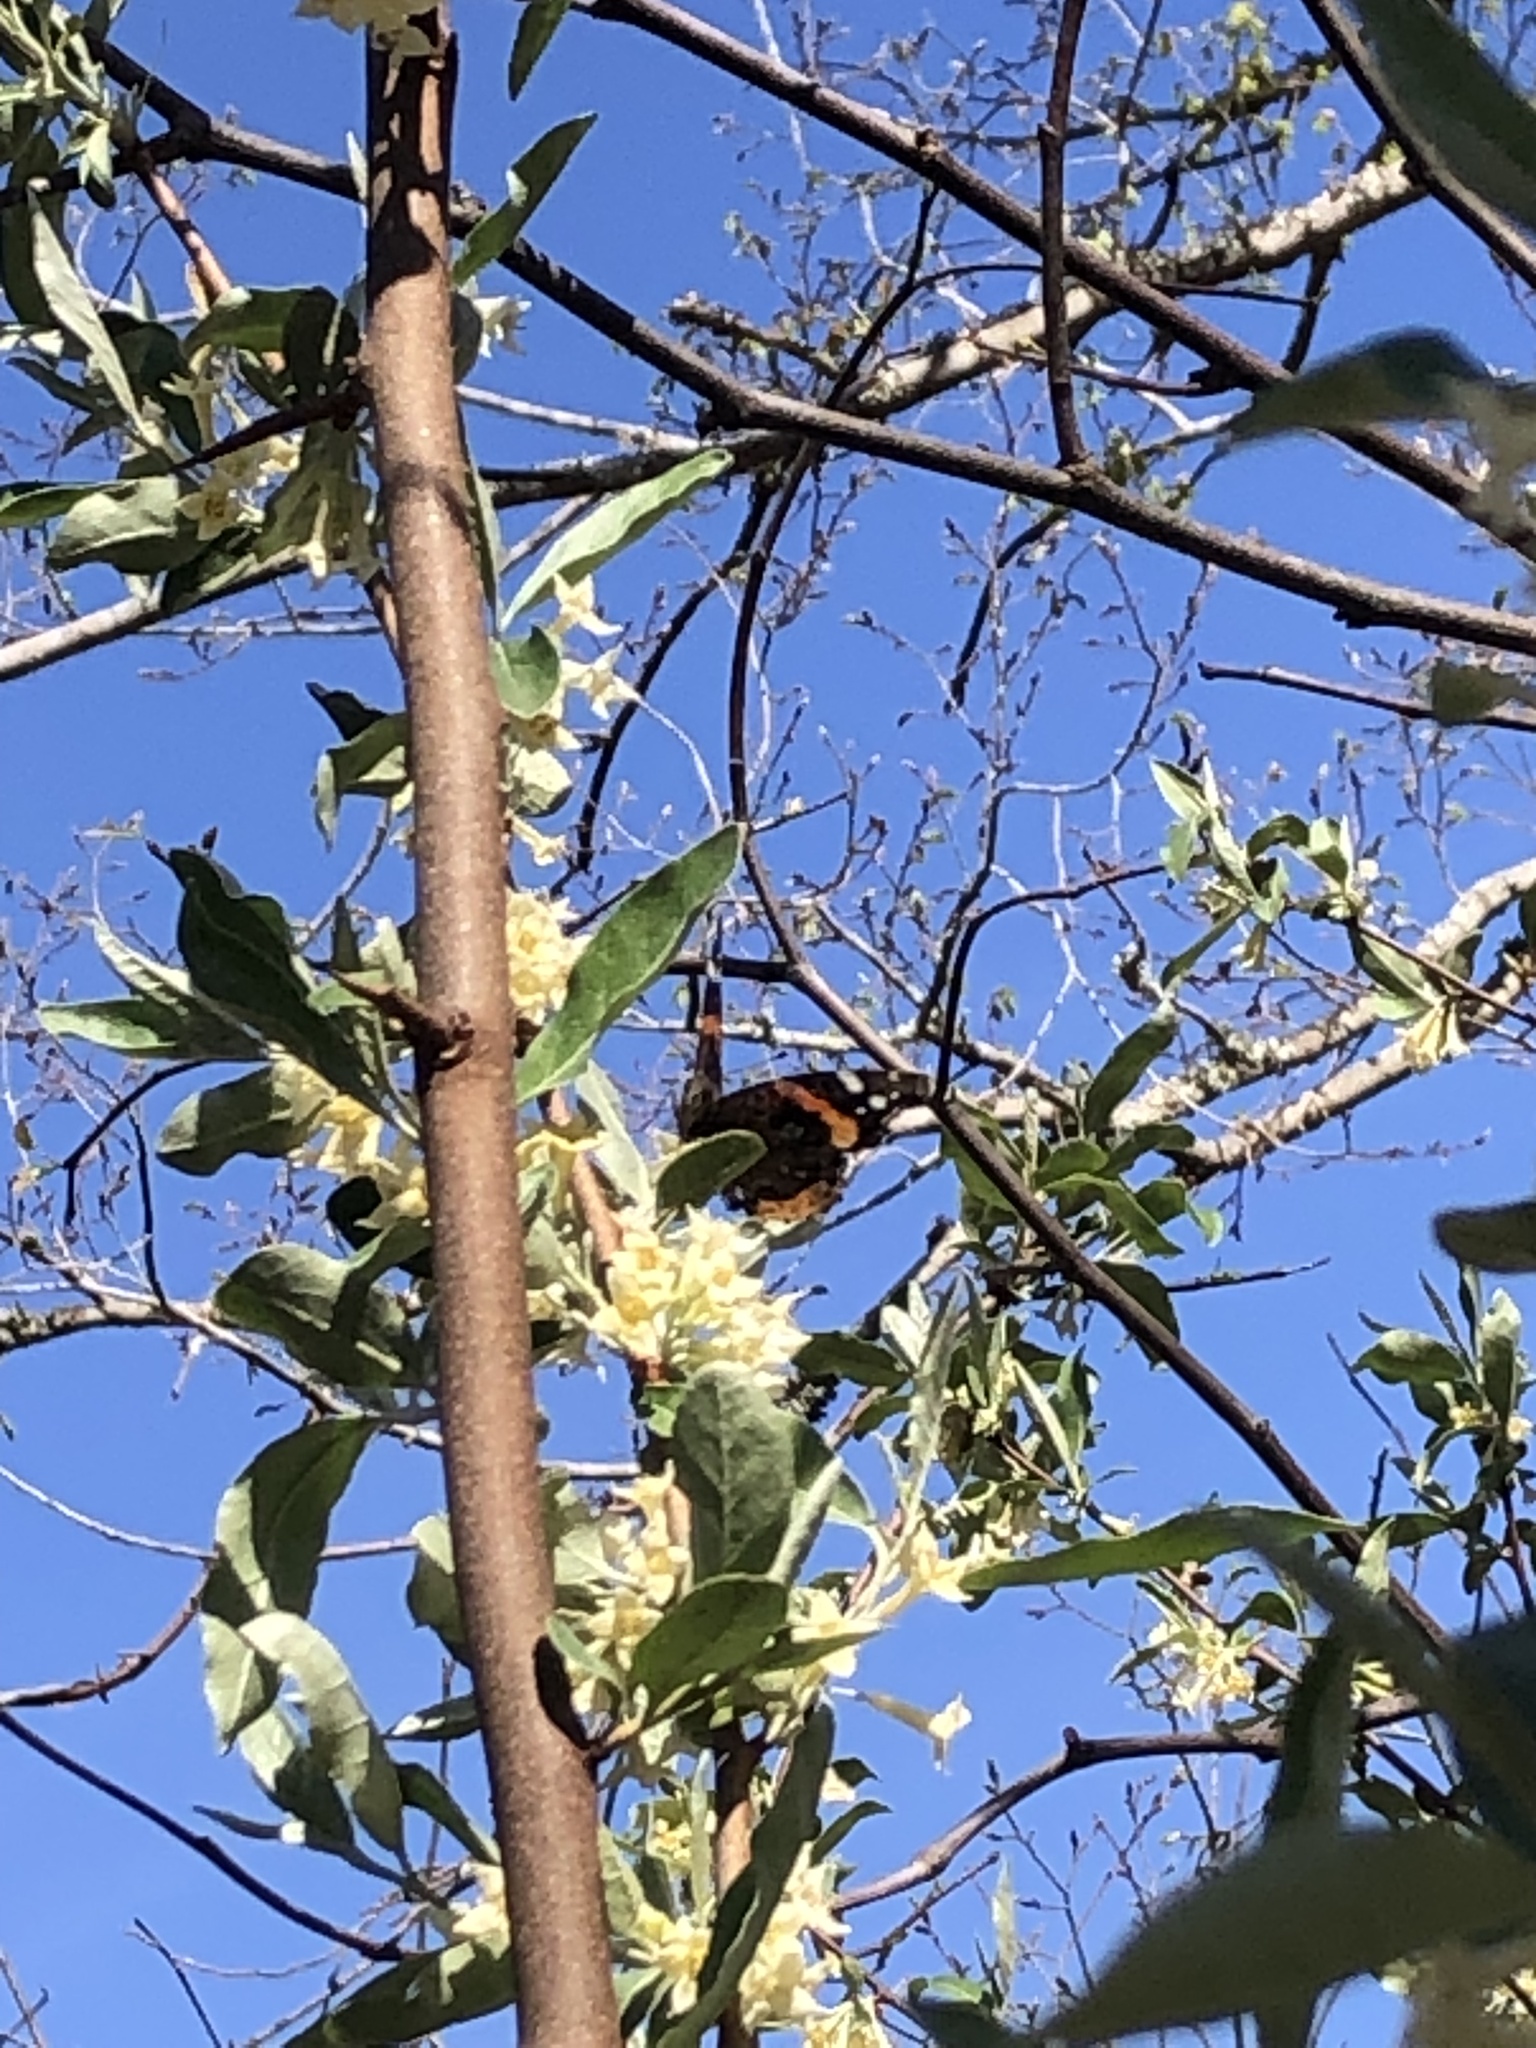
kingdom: Animalia
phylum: Arthropoda
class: Insecta
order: Lepidoptera
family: Nymphalidae
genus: Vanessa
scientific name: Vanessa atalanta
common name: Red admiral
